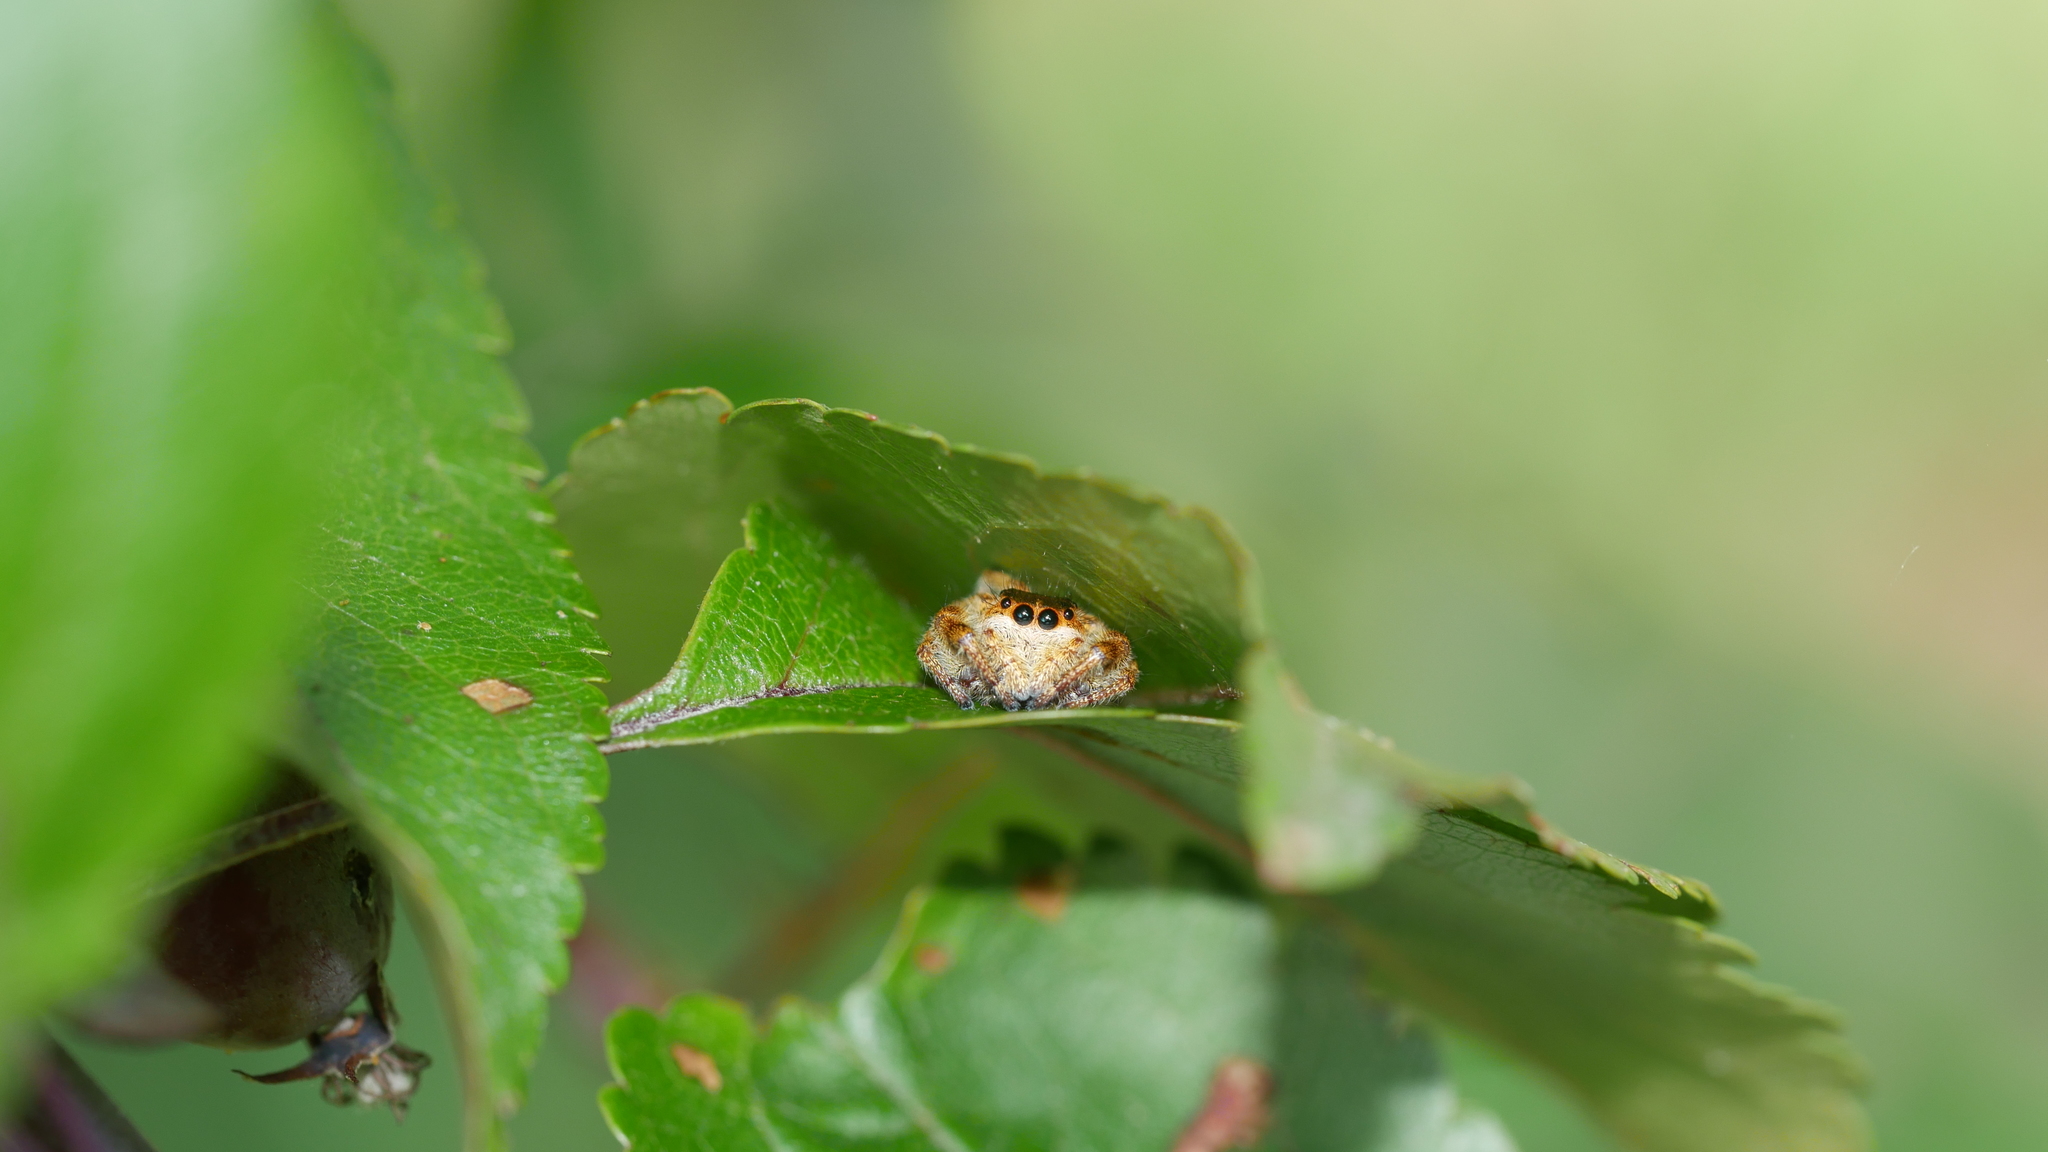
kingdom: Animalia
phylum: Arthropoda
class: Arachnida
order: Araneae
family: Salticidae
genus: Paraphidippus
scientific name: Paraphidippus aurantius
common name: Jumping spiders
